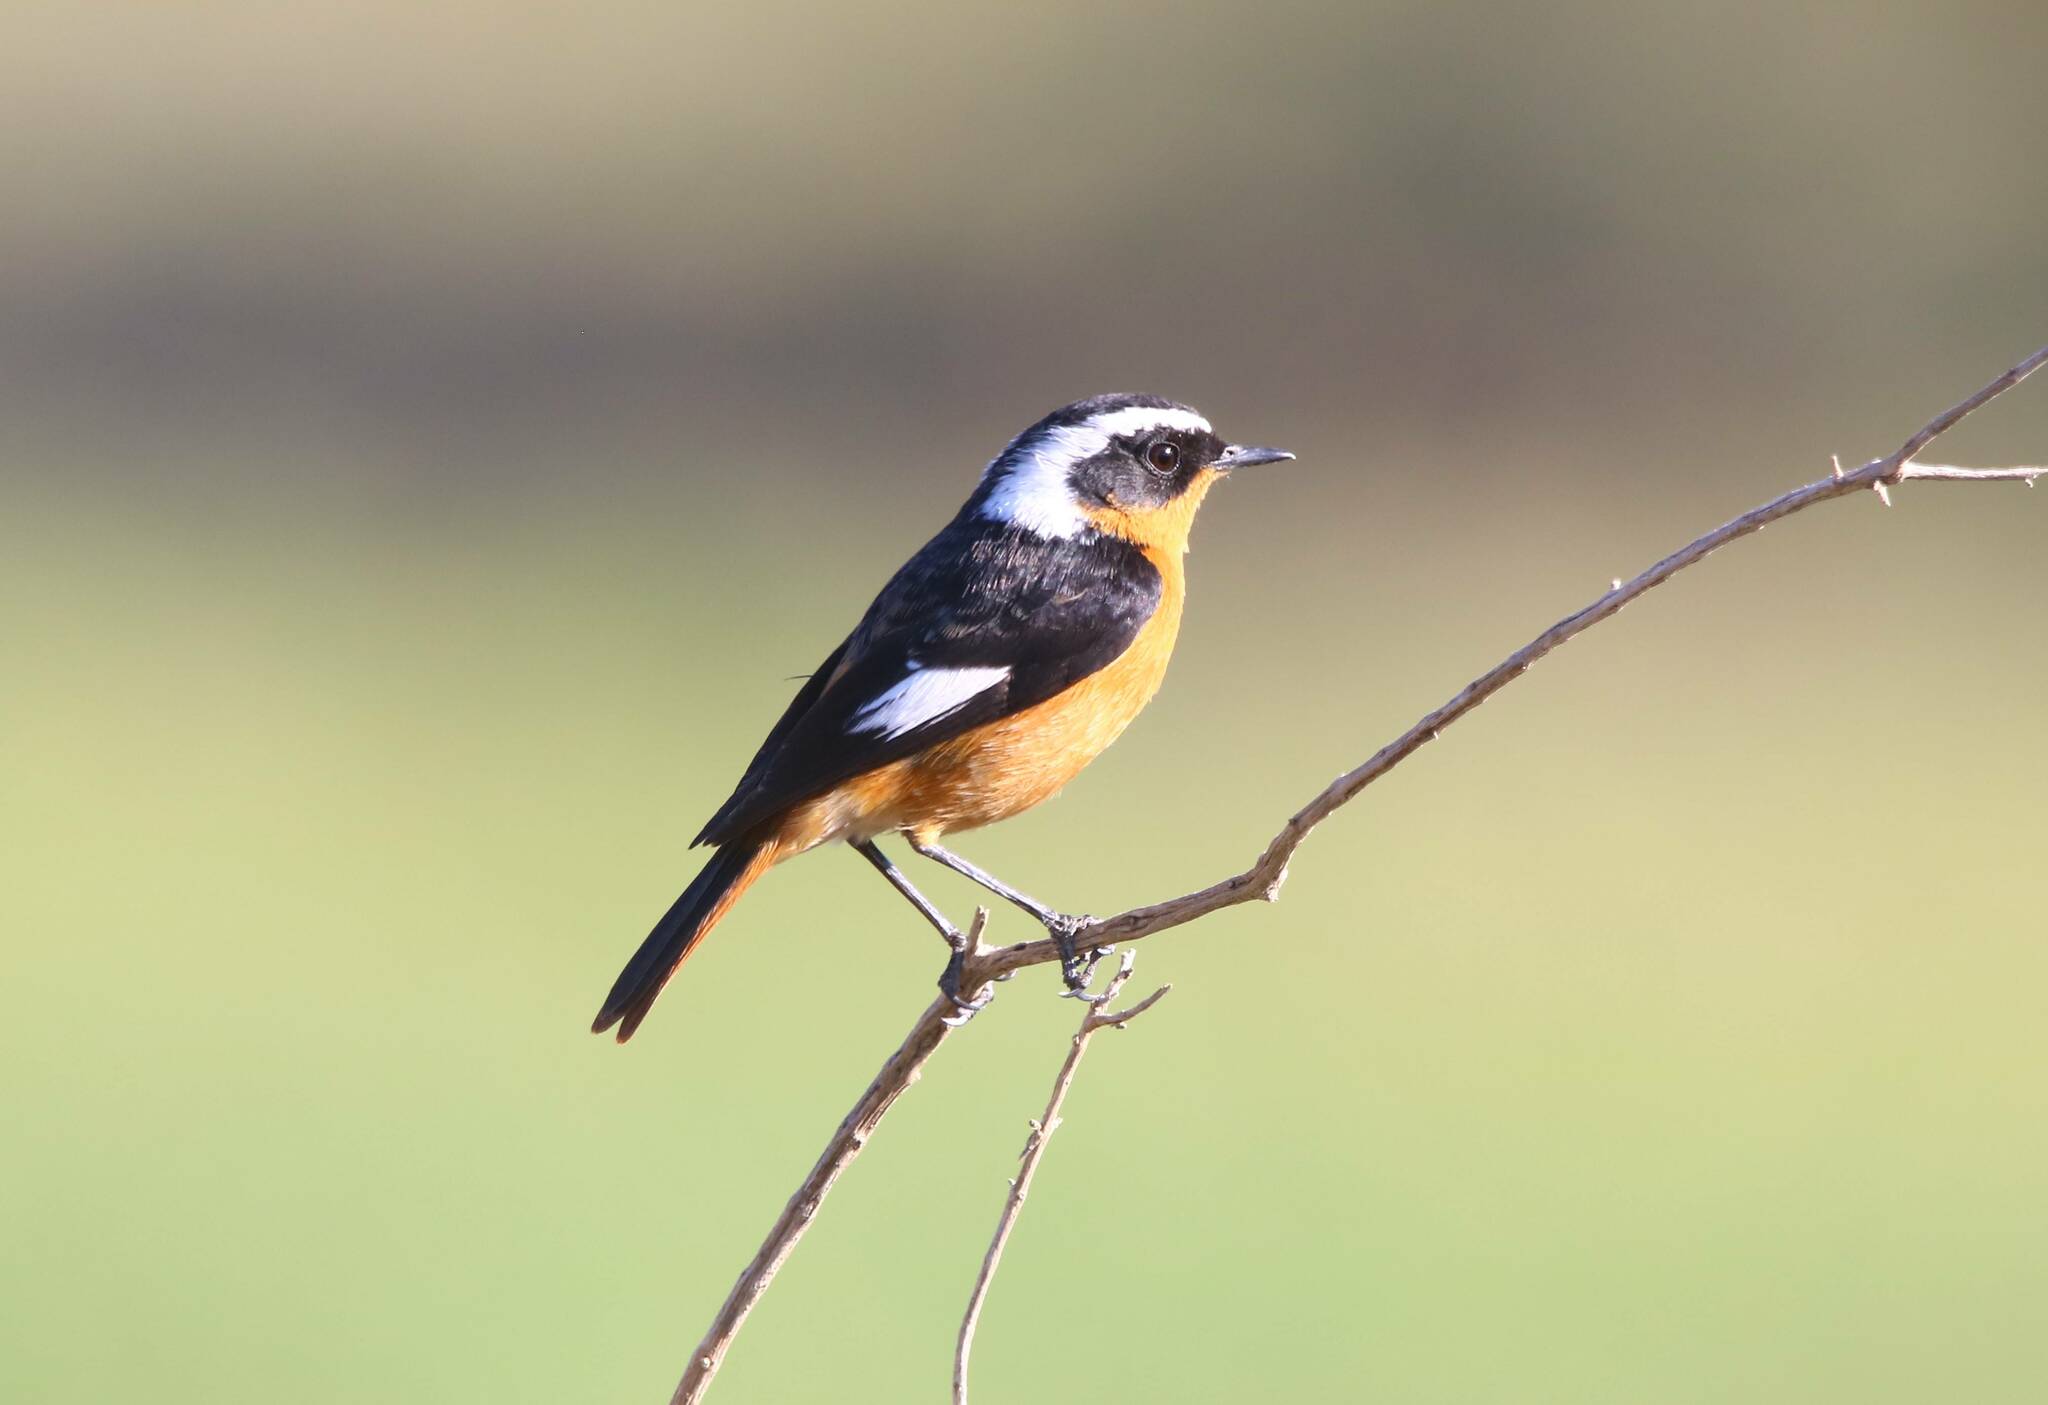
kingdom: Animalia
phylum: Chordata
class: Aves
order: Passeriformes
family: Muscicapidae
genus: Phoenicurus
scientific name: Phoenicurus moussieri
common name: Moussier's redstart
